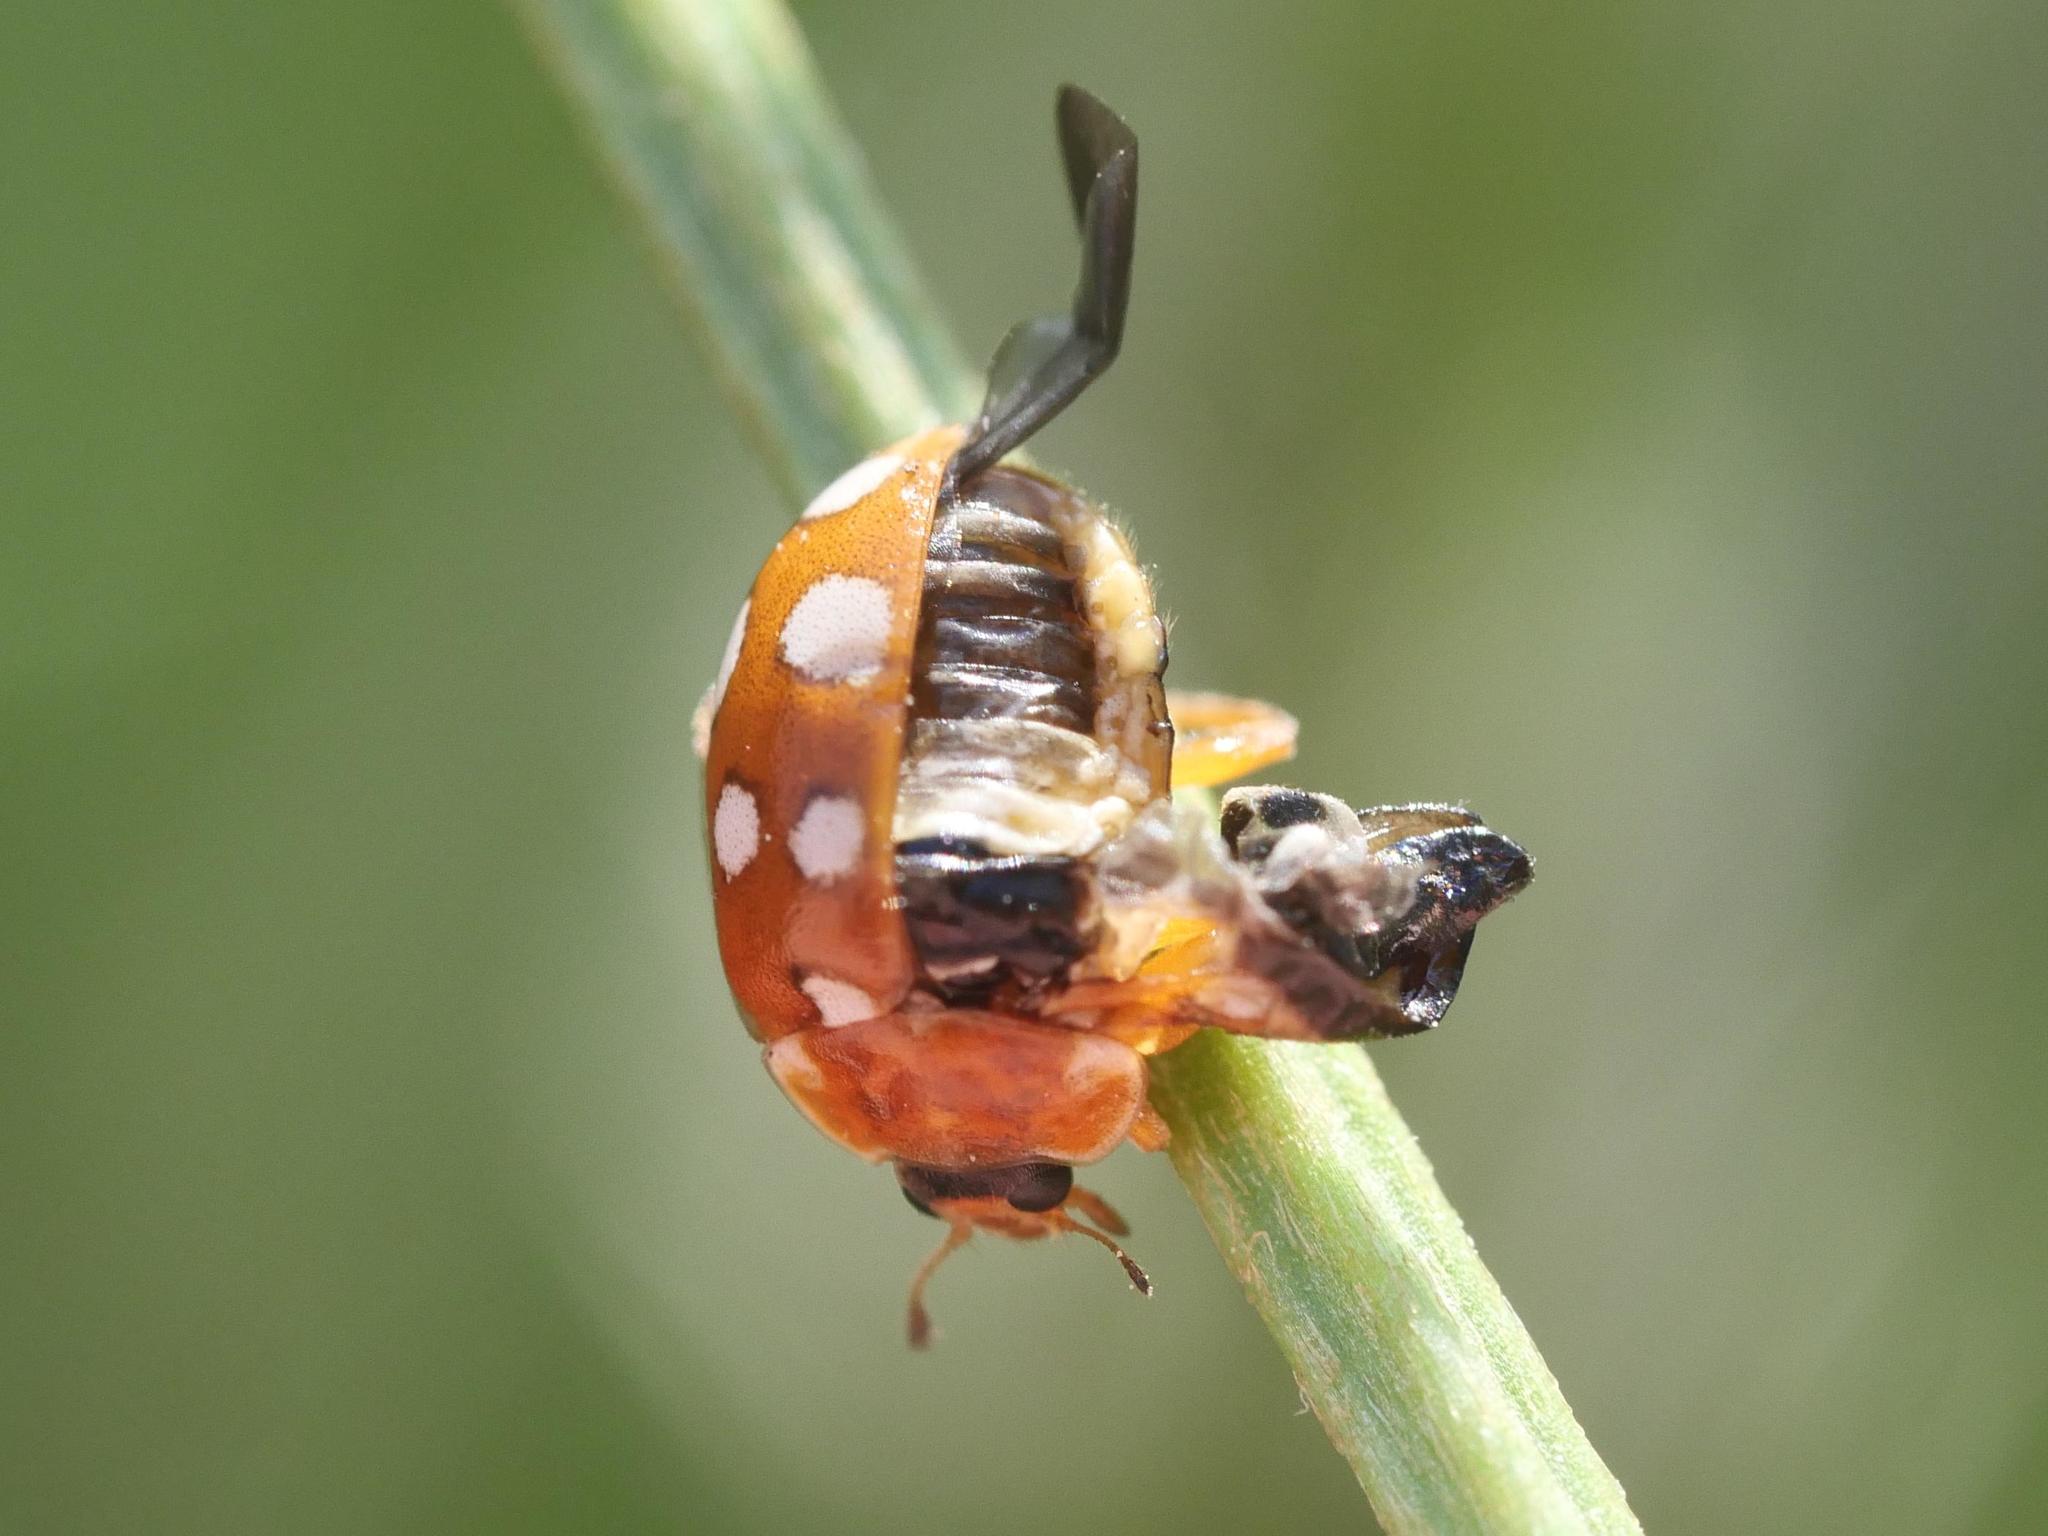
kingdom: Animalia
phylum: Arthropoda
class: Insecta
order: Coleoptera
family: Coccinellidae
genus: Calvia
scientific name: Calvia quatuordecimguttata
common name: Cream-spot ladybird
